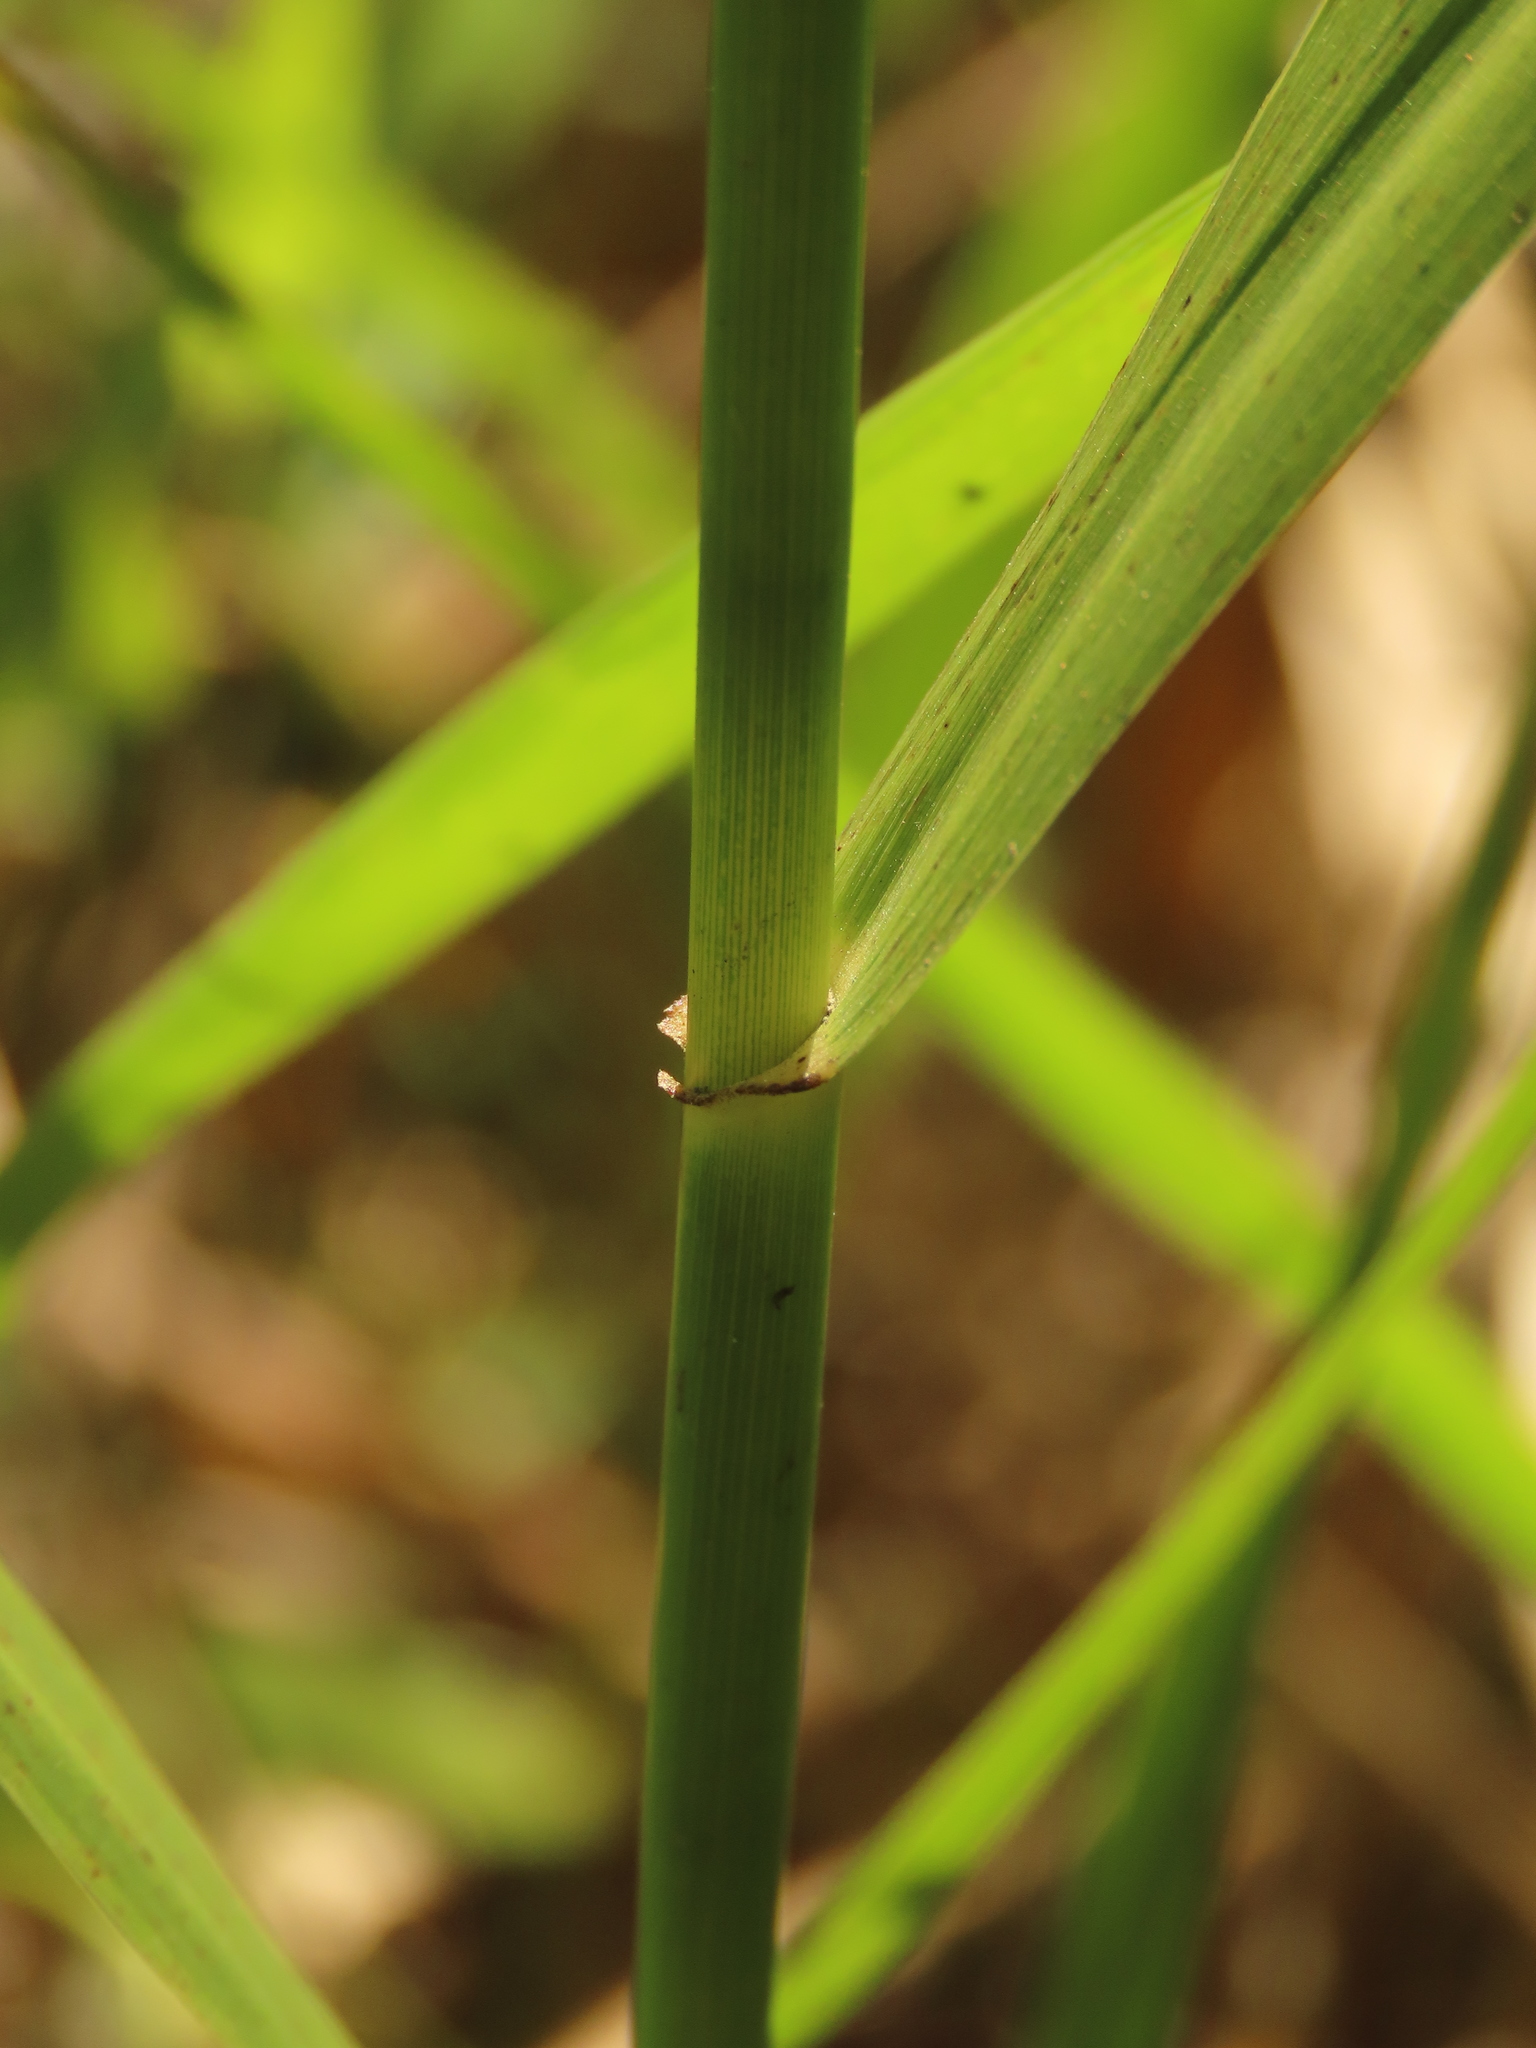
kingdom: Plantae
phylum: Tracheophyta
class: Liliopsida
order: Poales
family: Poaceae
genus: Phragmites
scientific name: Phragmites karka
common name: Tropical reed
